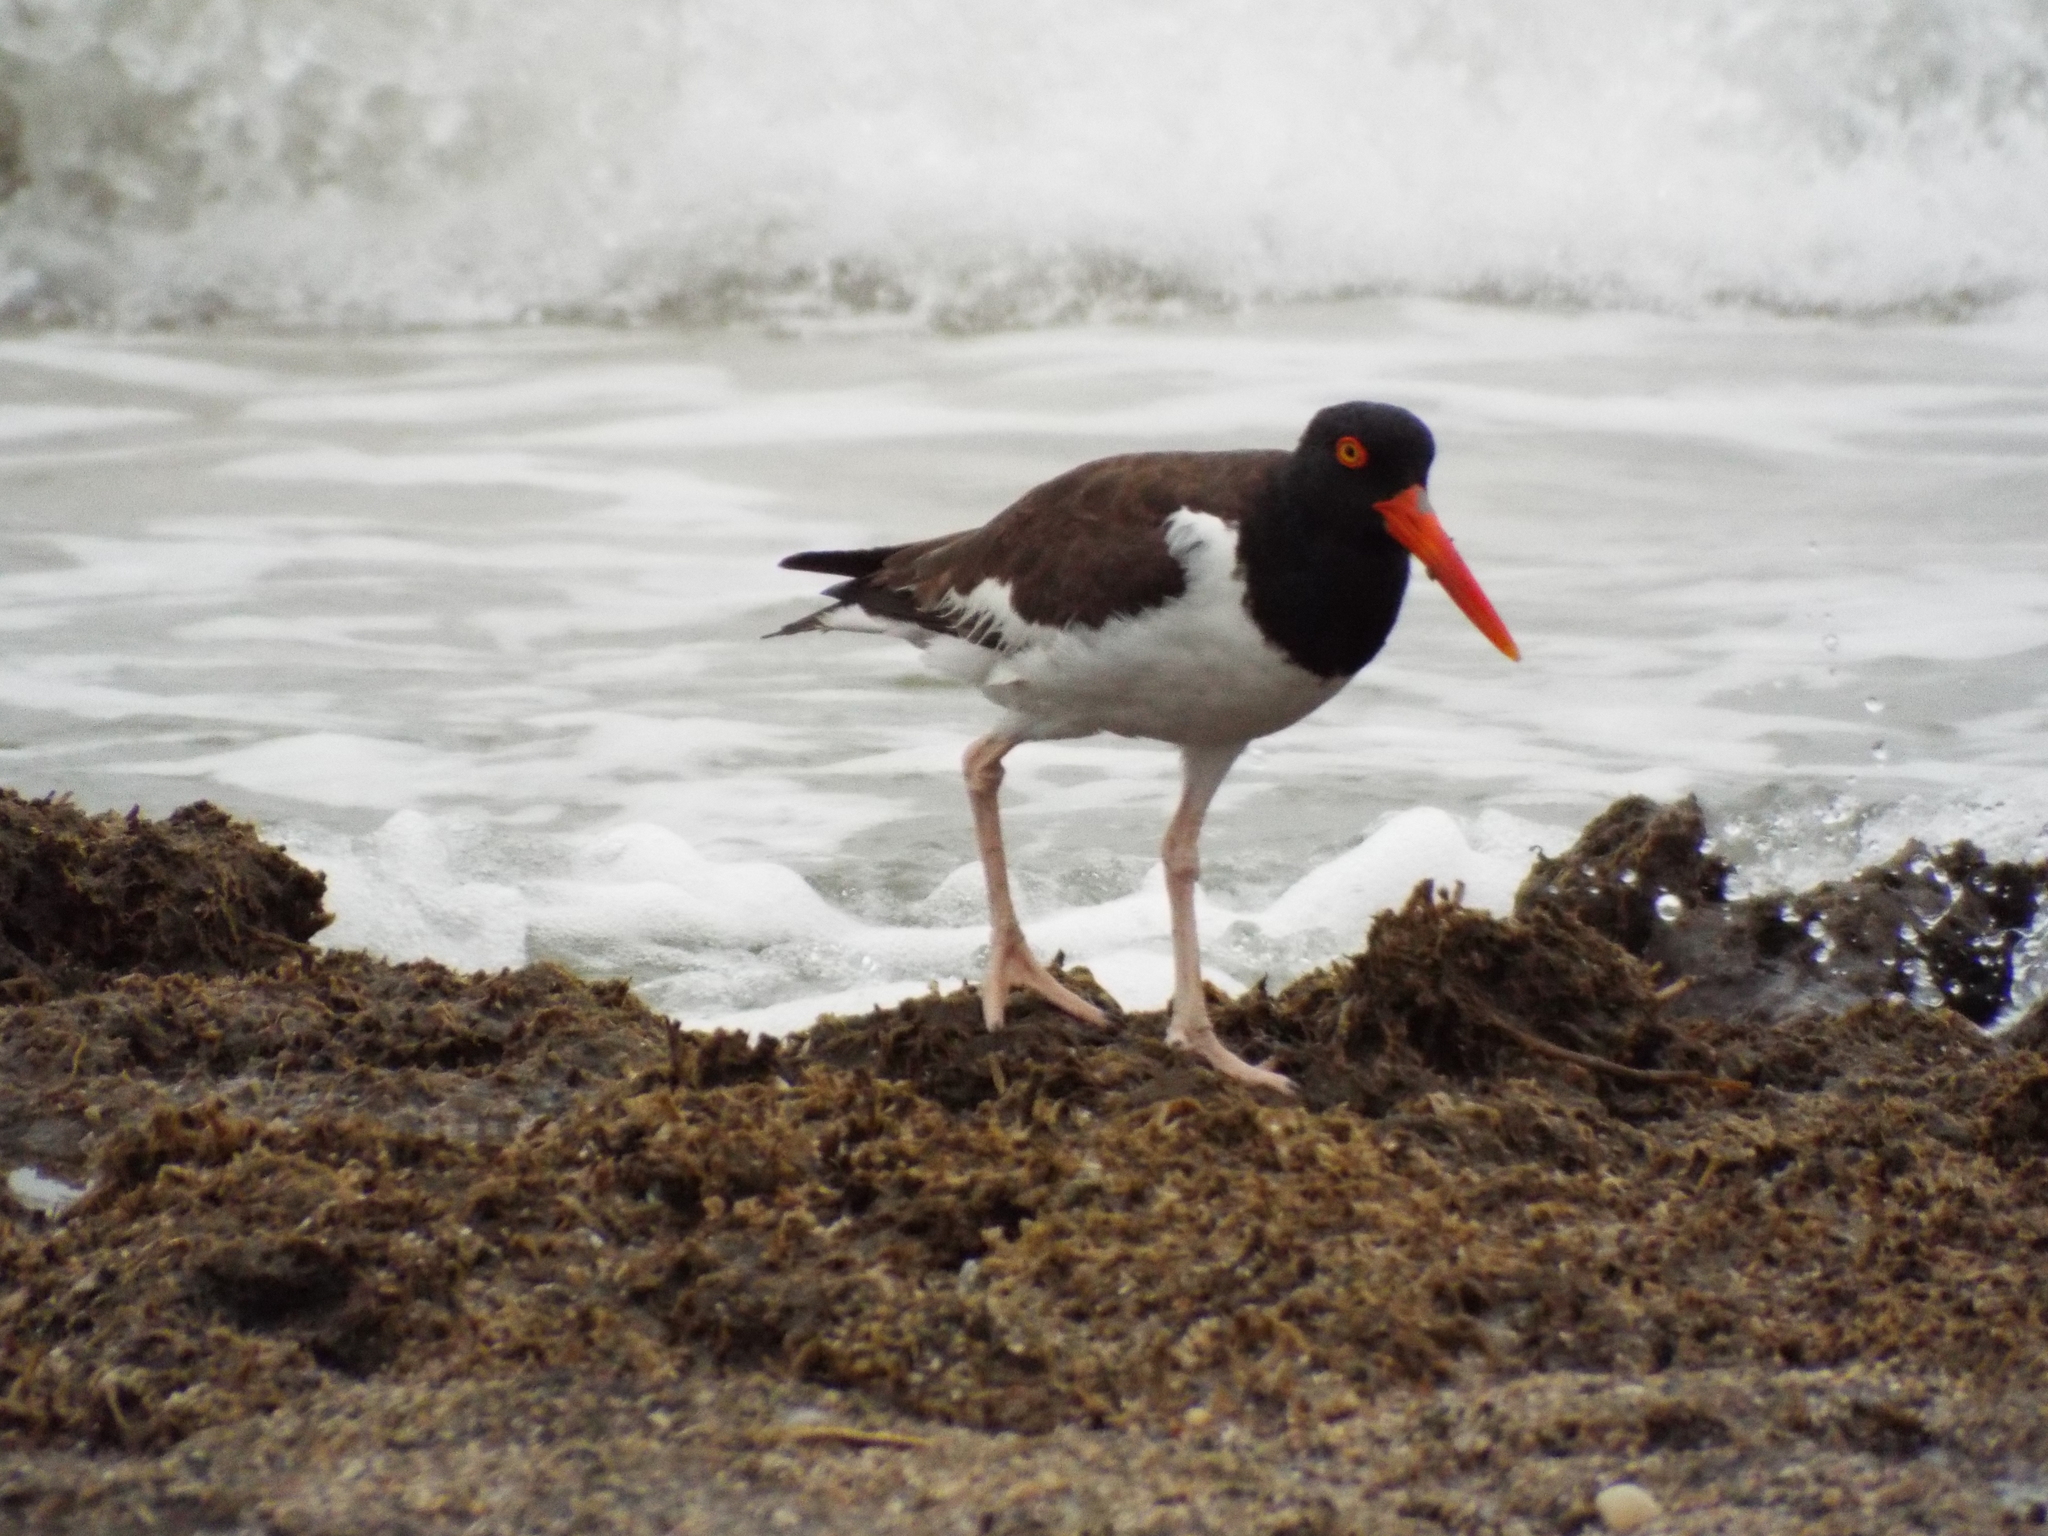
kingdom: Animalia
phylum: Chordata
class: Aves
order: Charadriiformes
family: Haematopodidae
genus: Haematopus
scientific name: Haematopus palliatus
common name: American oystercatcher
